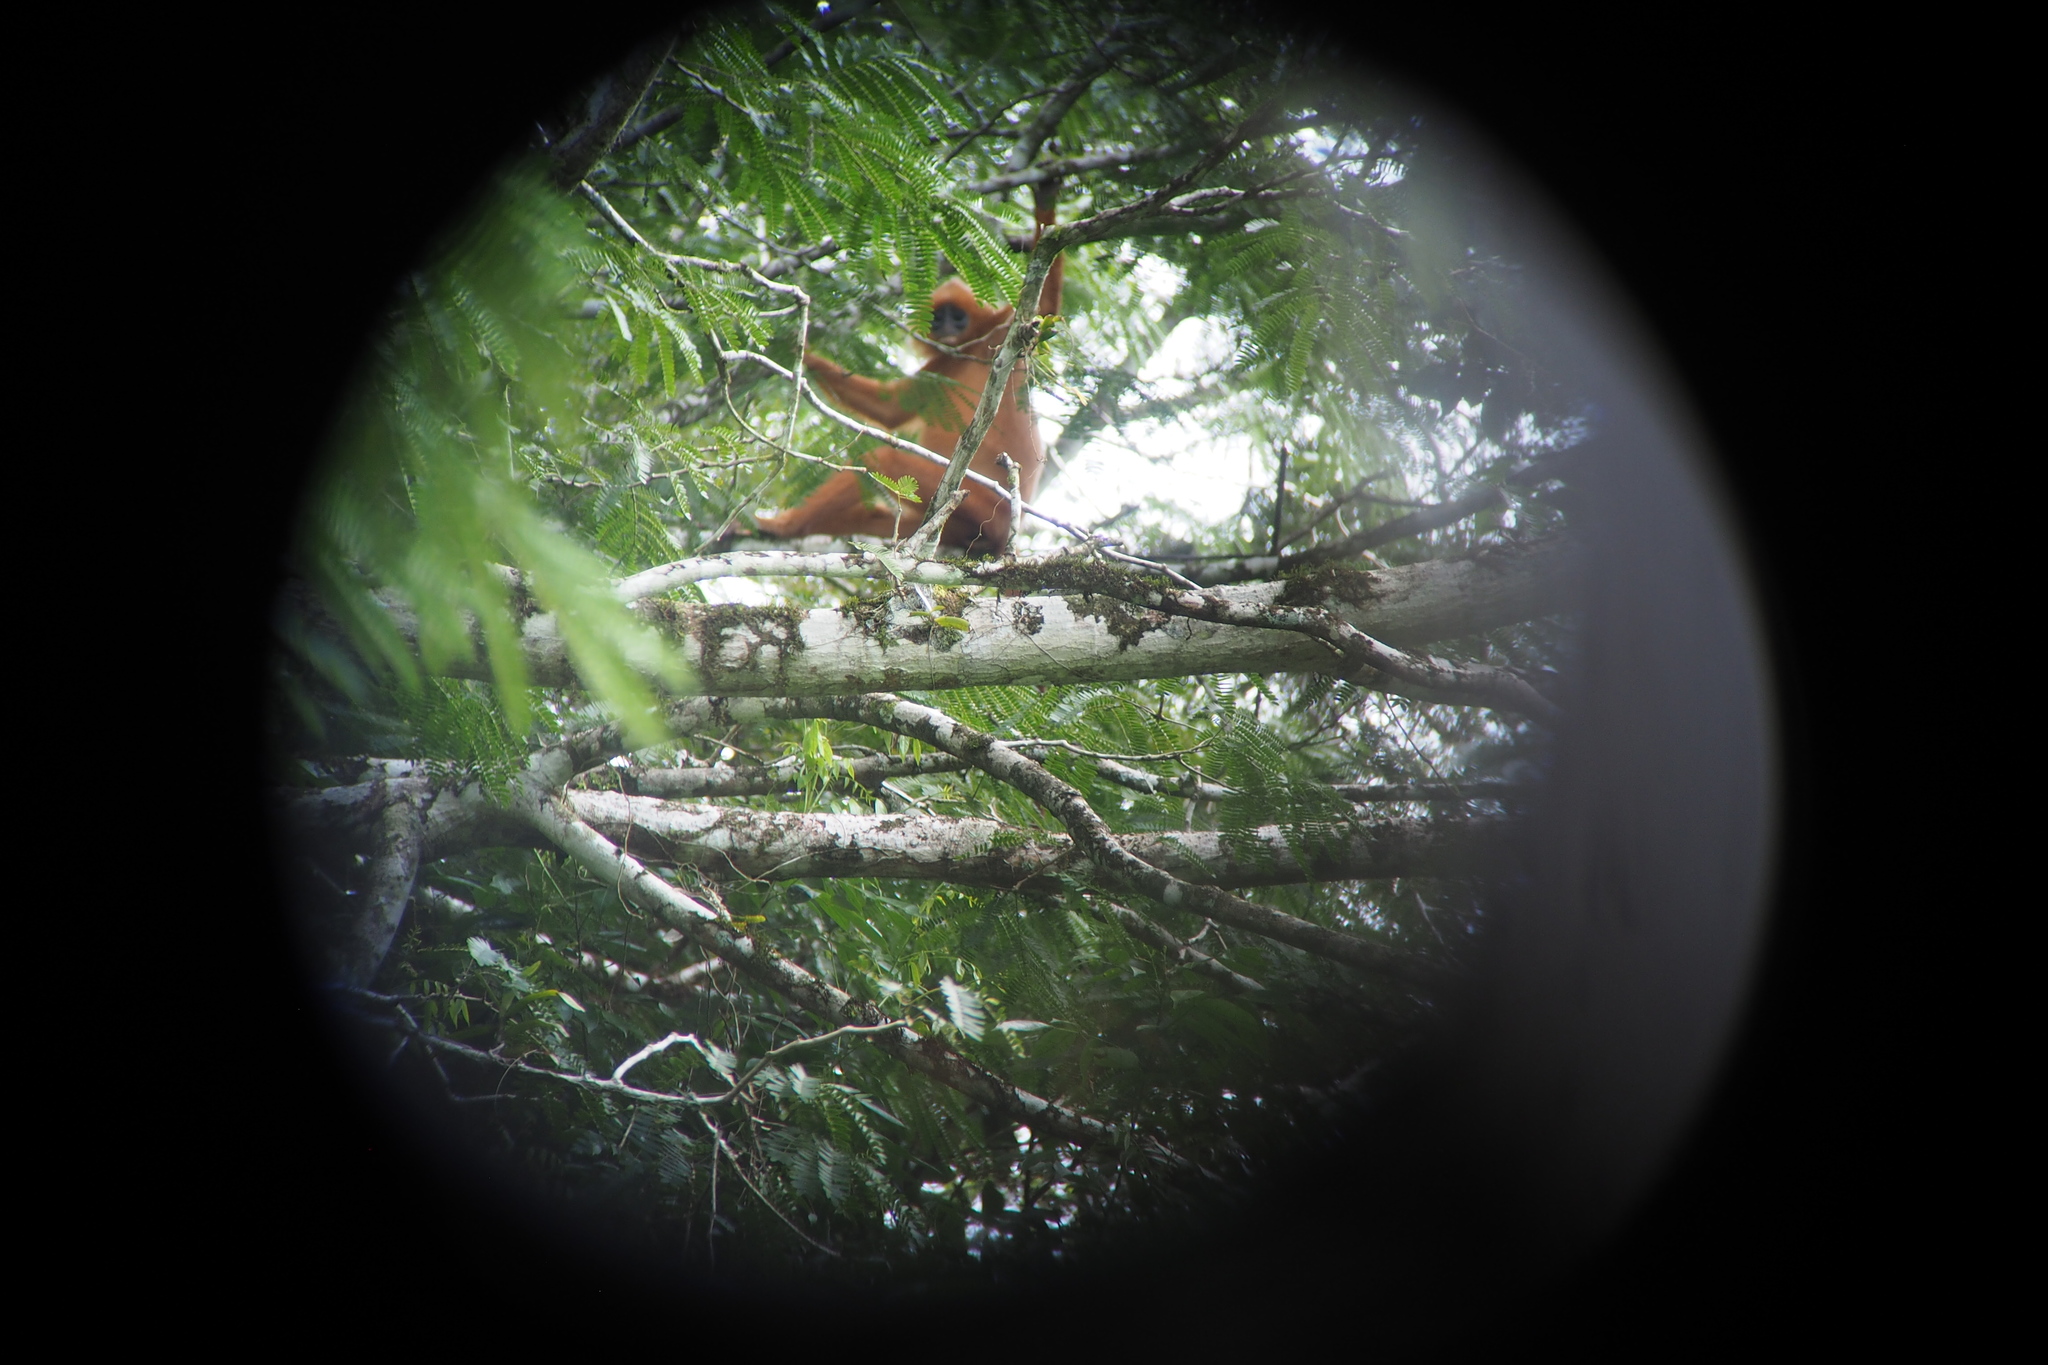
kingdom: Animalia
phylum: Chordata
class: Mammalia
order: Primates
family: Cercopithecidae
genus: Presbytis
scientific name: Presbytis rubicunda
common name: Maroon leaf monkey
